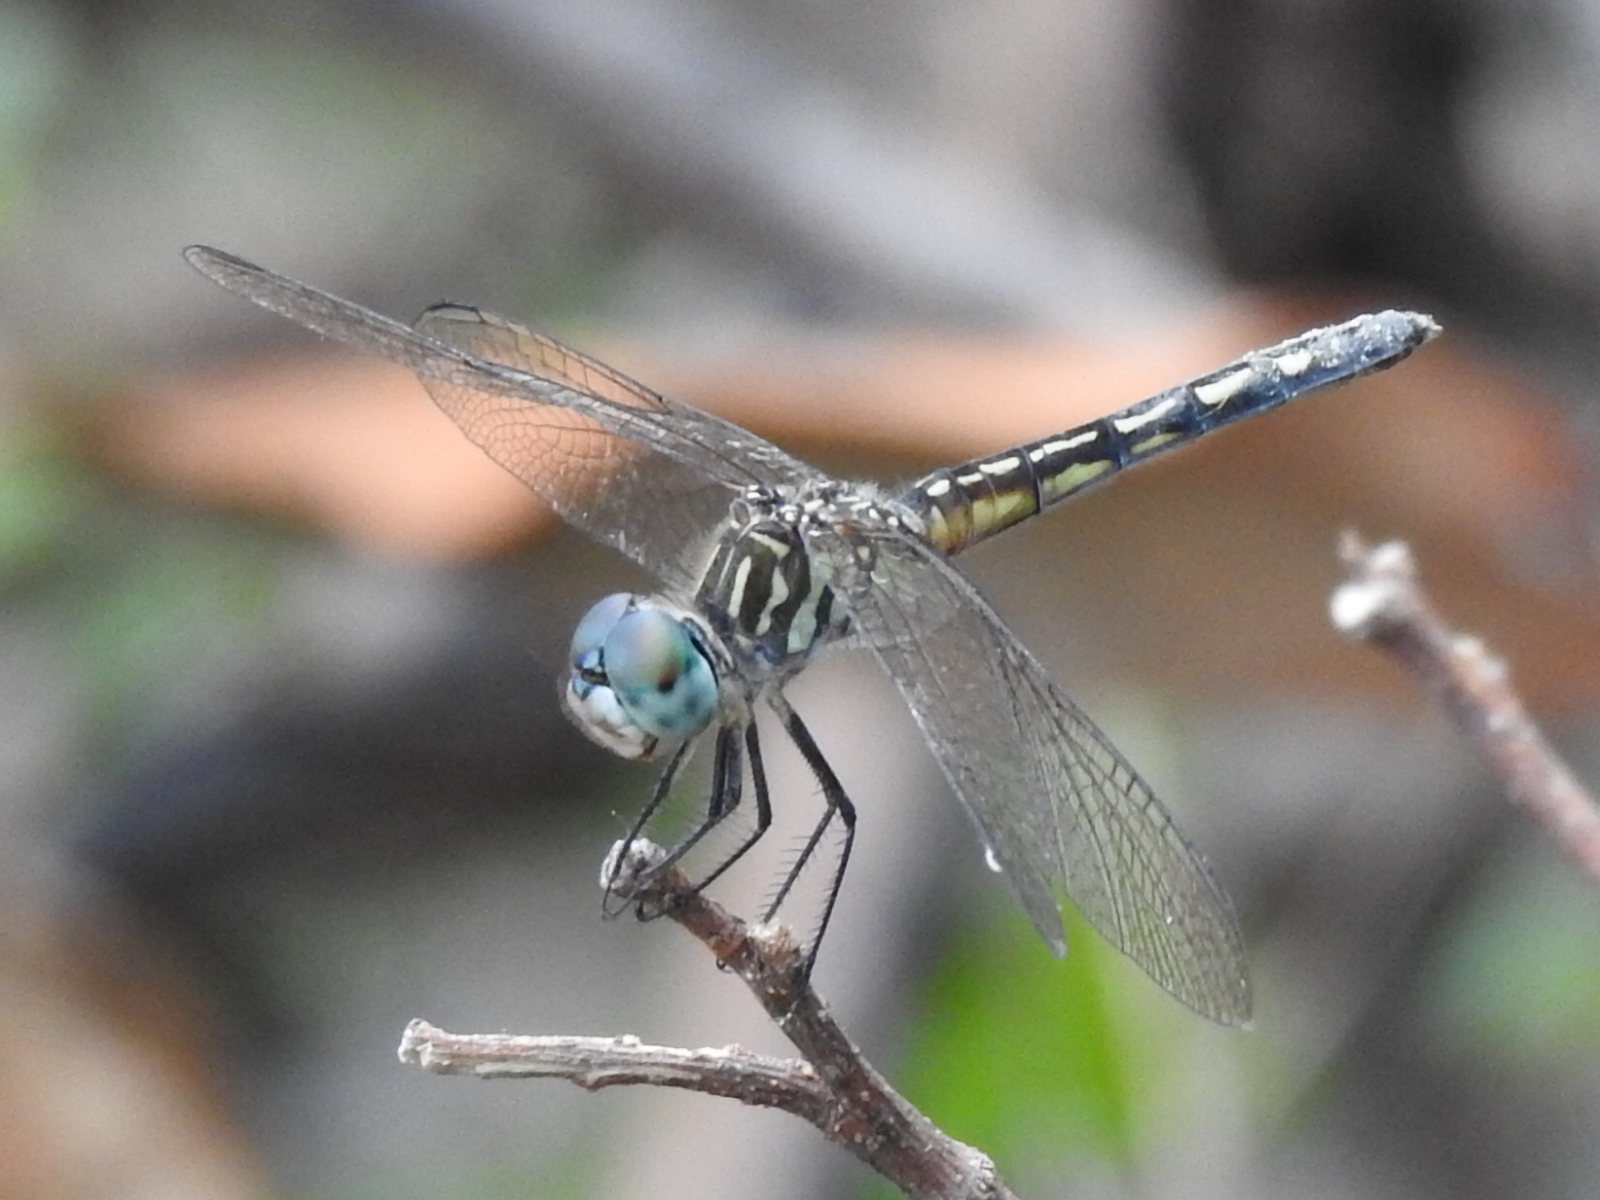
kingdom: Animalia
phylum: Arthropoda
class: Insecta
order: Odonata
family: Libellulidae
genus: Pachydiplax
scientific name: Pachydiplax longipennis
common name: Blue dasher
